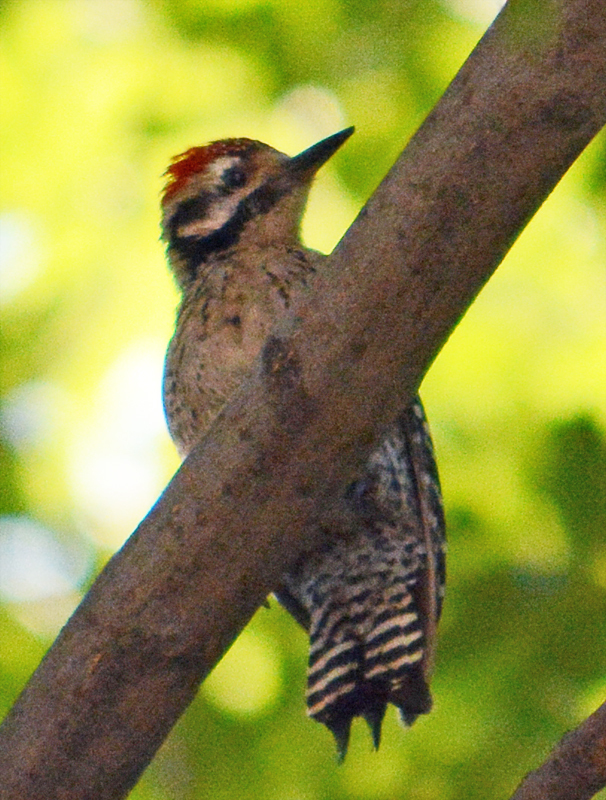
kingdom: Animalia
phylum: Chordata
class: Aves
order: Piciformes
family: Picidae
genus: Dryobates
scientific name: Dryobates scalaris
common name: Ladder-backed woodpecker
